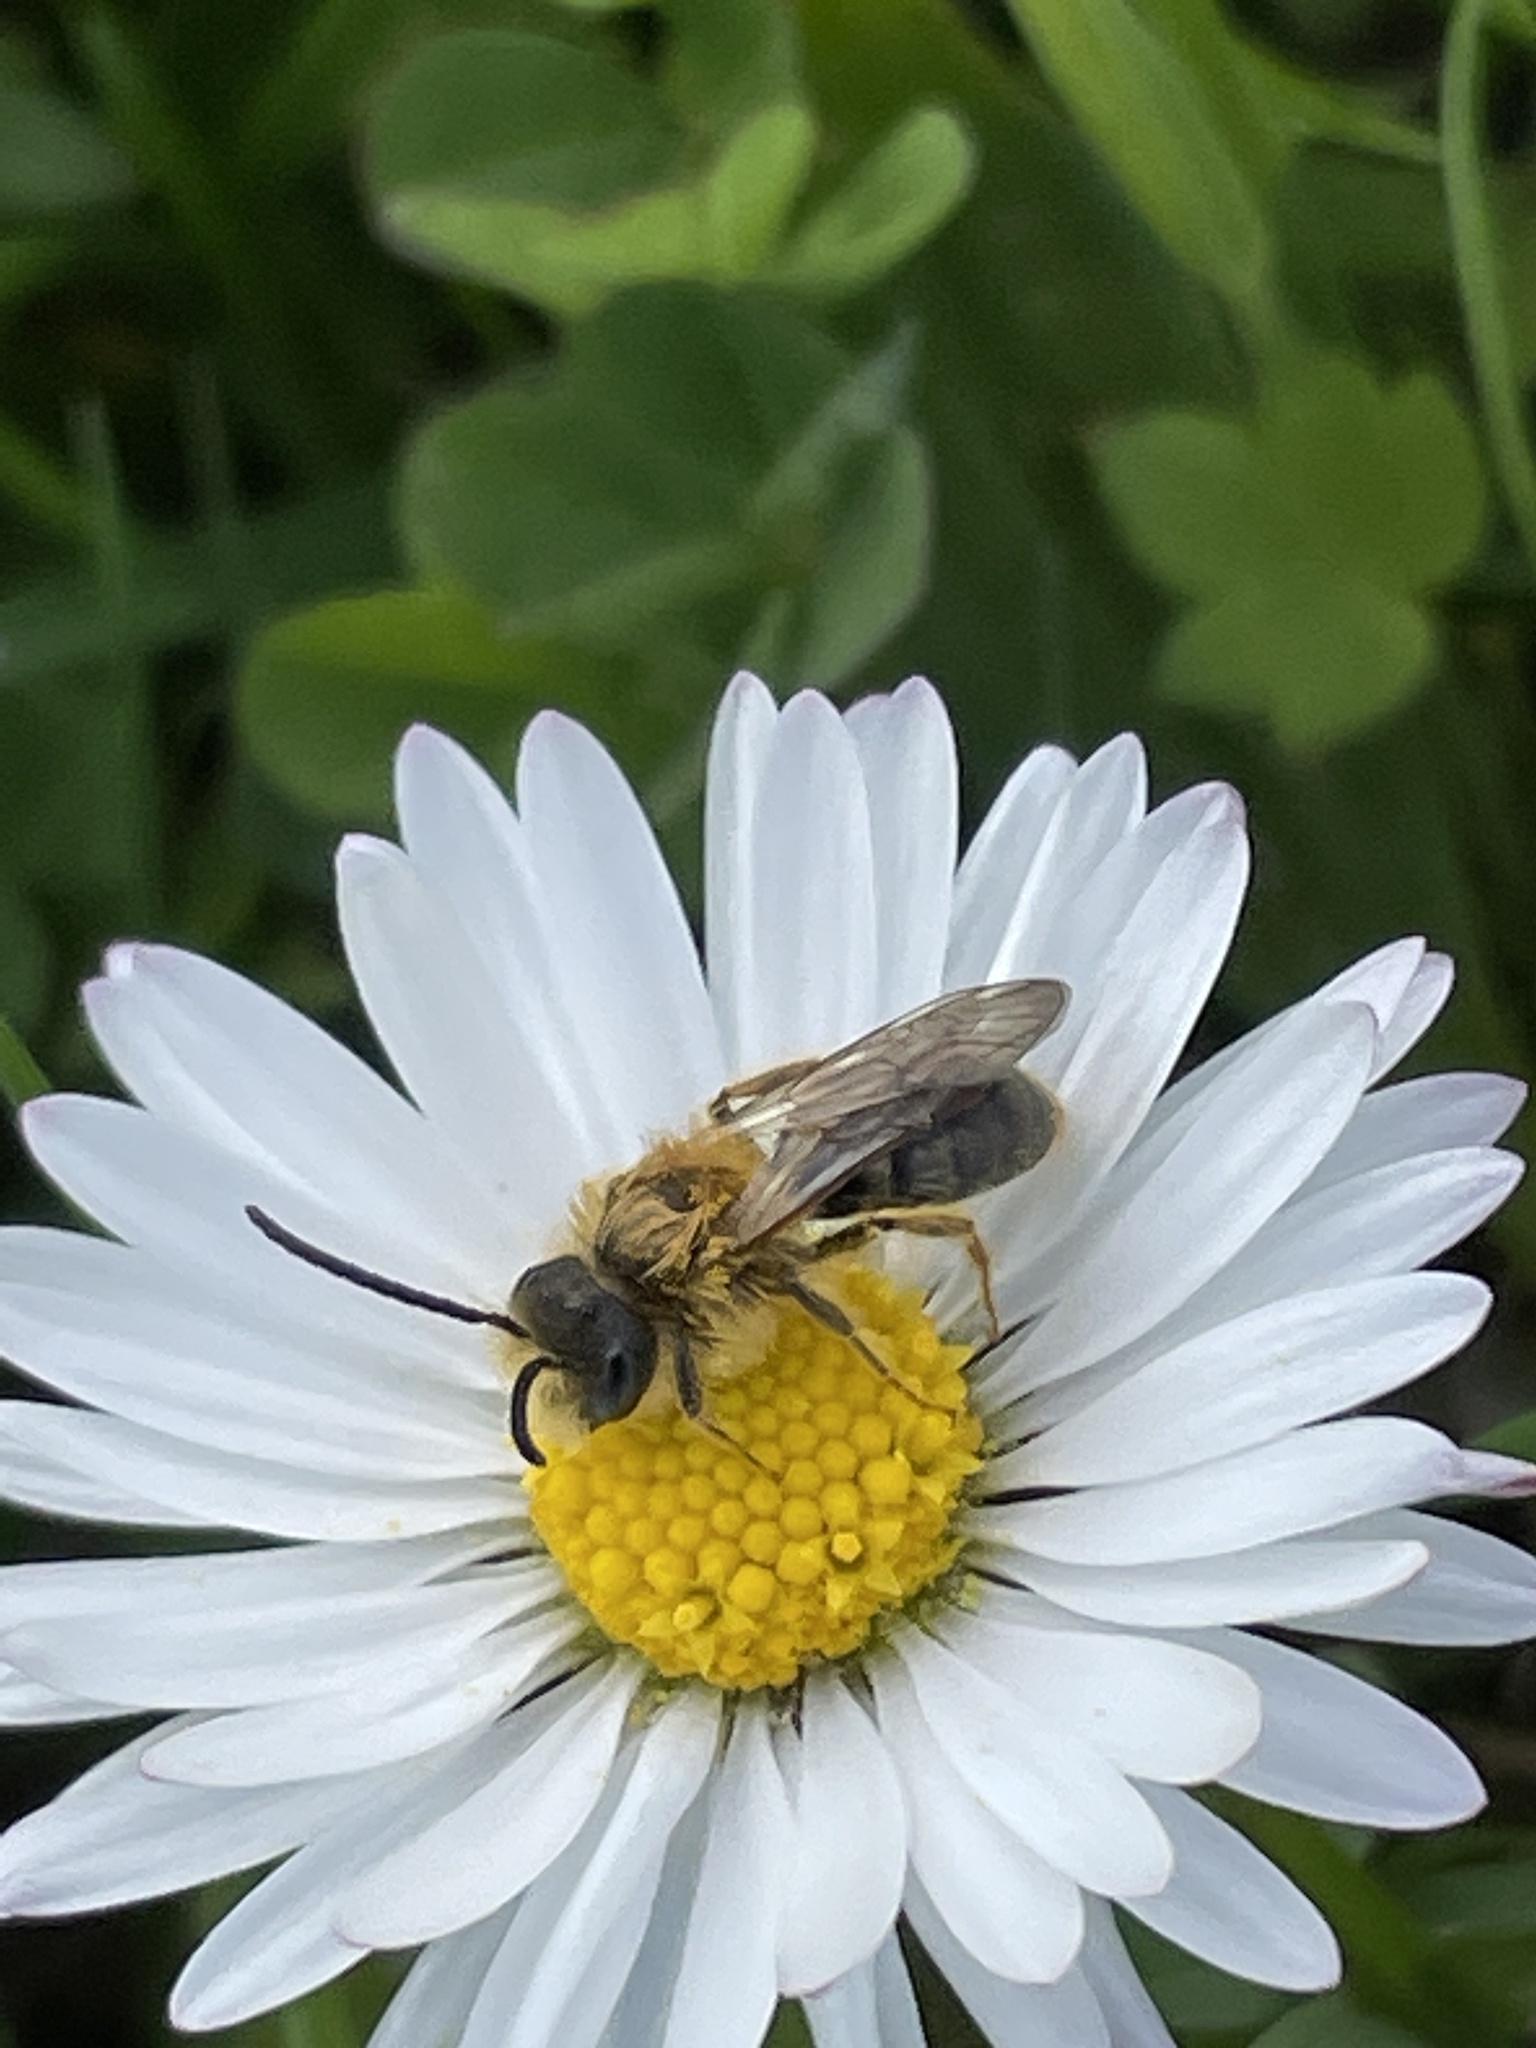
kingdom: Animalia
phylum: Arthropoda
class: Insecta
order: Hymenoptera
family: Andrenidae
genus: Andrena
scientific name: Andrena haemorrhoa
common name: Early mining bee
